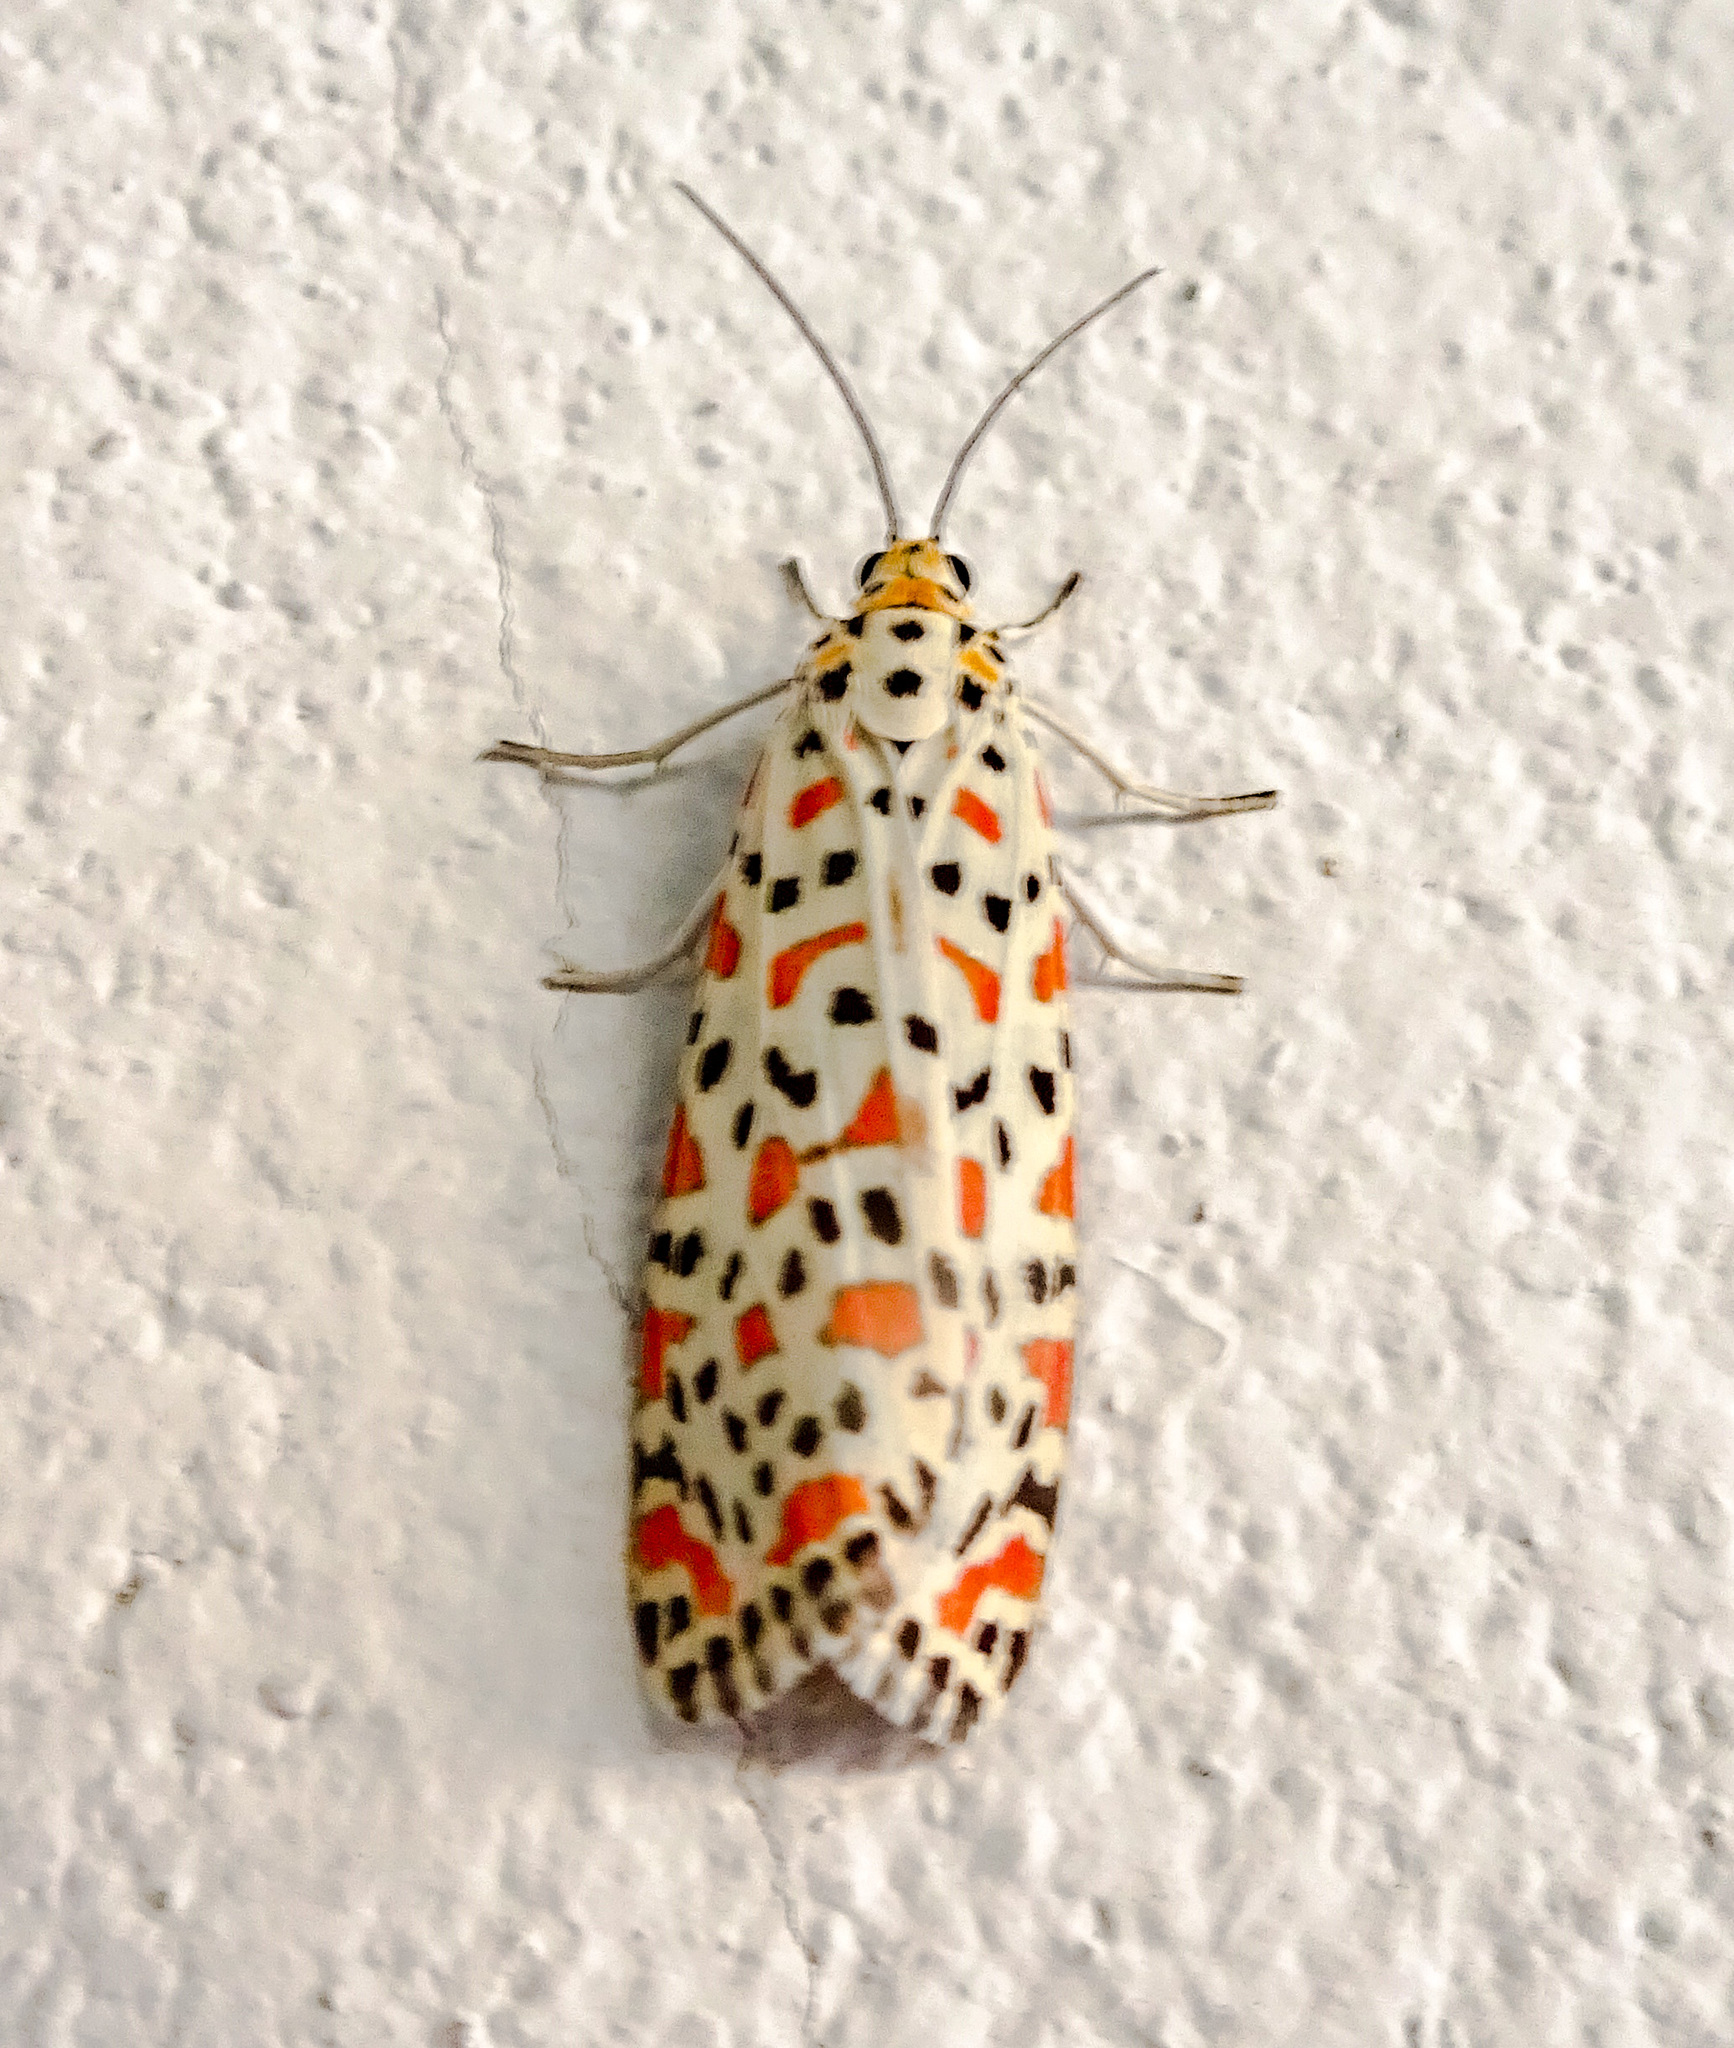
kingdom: Animalia
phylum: Arthropoda
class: Insecta
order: Lepidoptera
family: Erebidae
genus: Utetheisa
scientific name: Utetheisa lotrix
